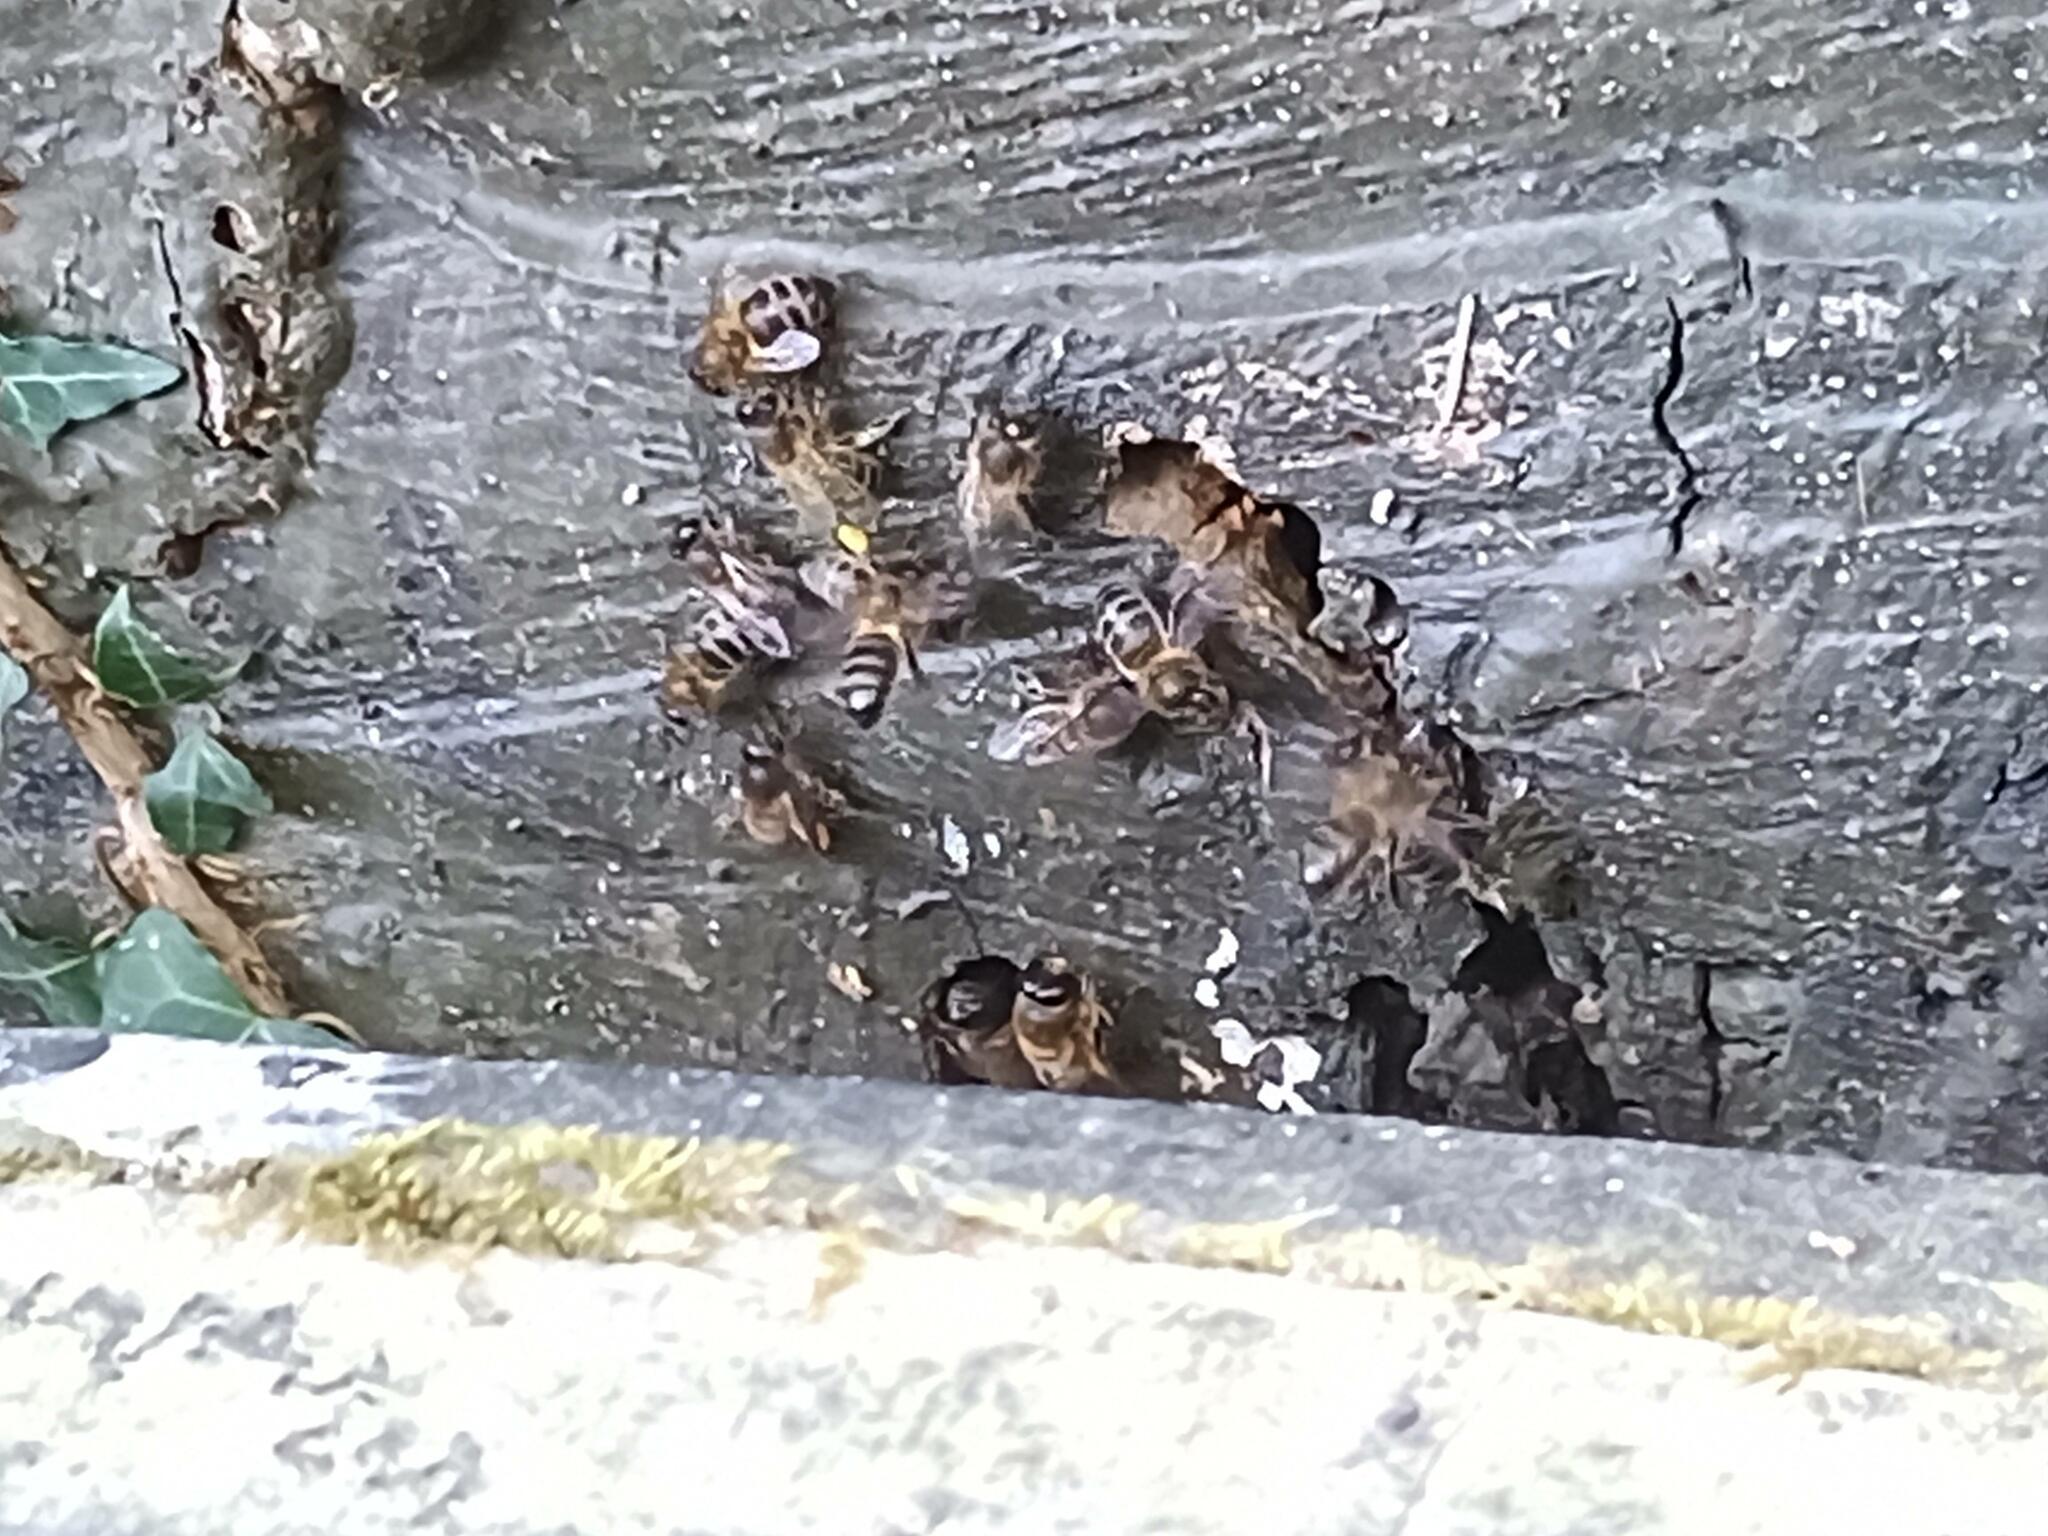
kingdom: Animalia
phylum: Arthropoda
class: Insecta
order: Hymenoptera
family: Apidae
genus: Apis
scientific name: Apis mellifera
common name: Honey bee
